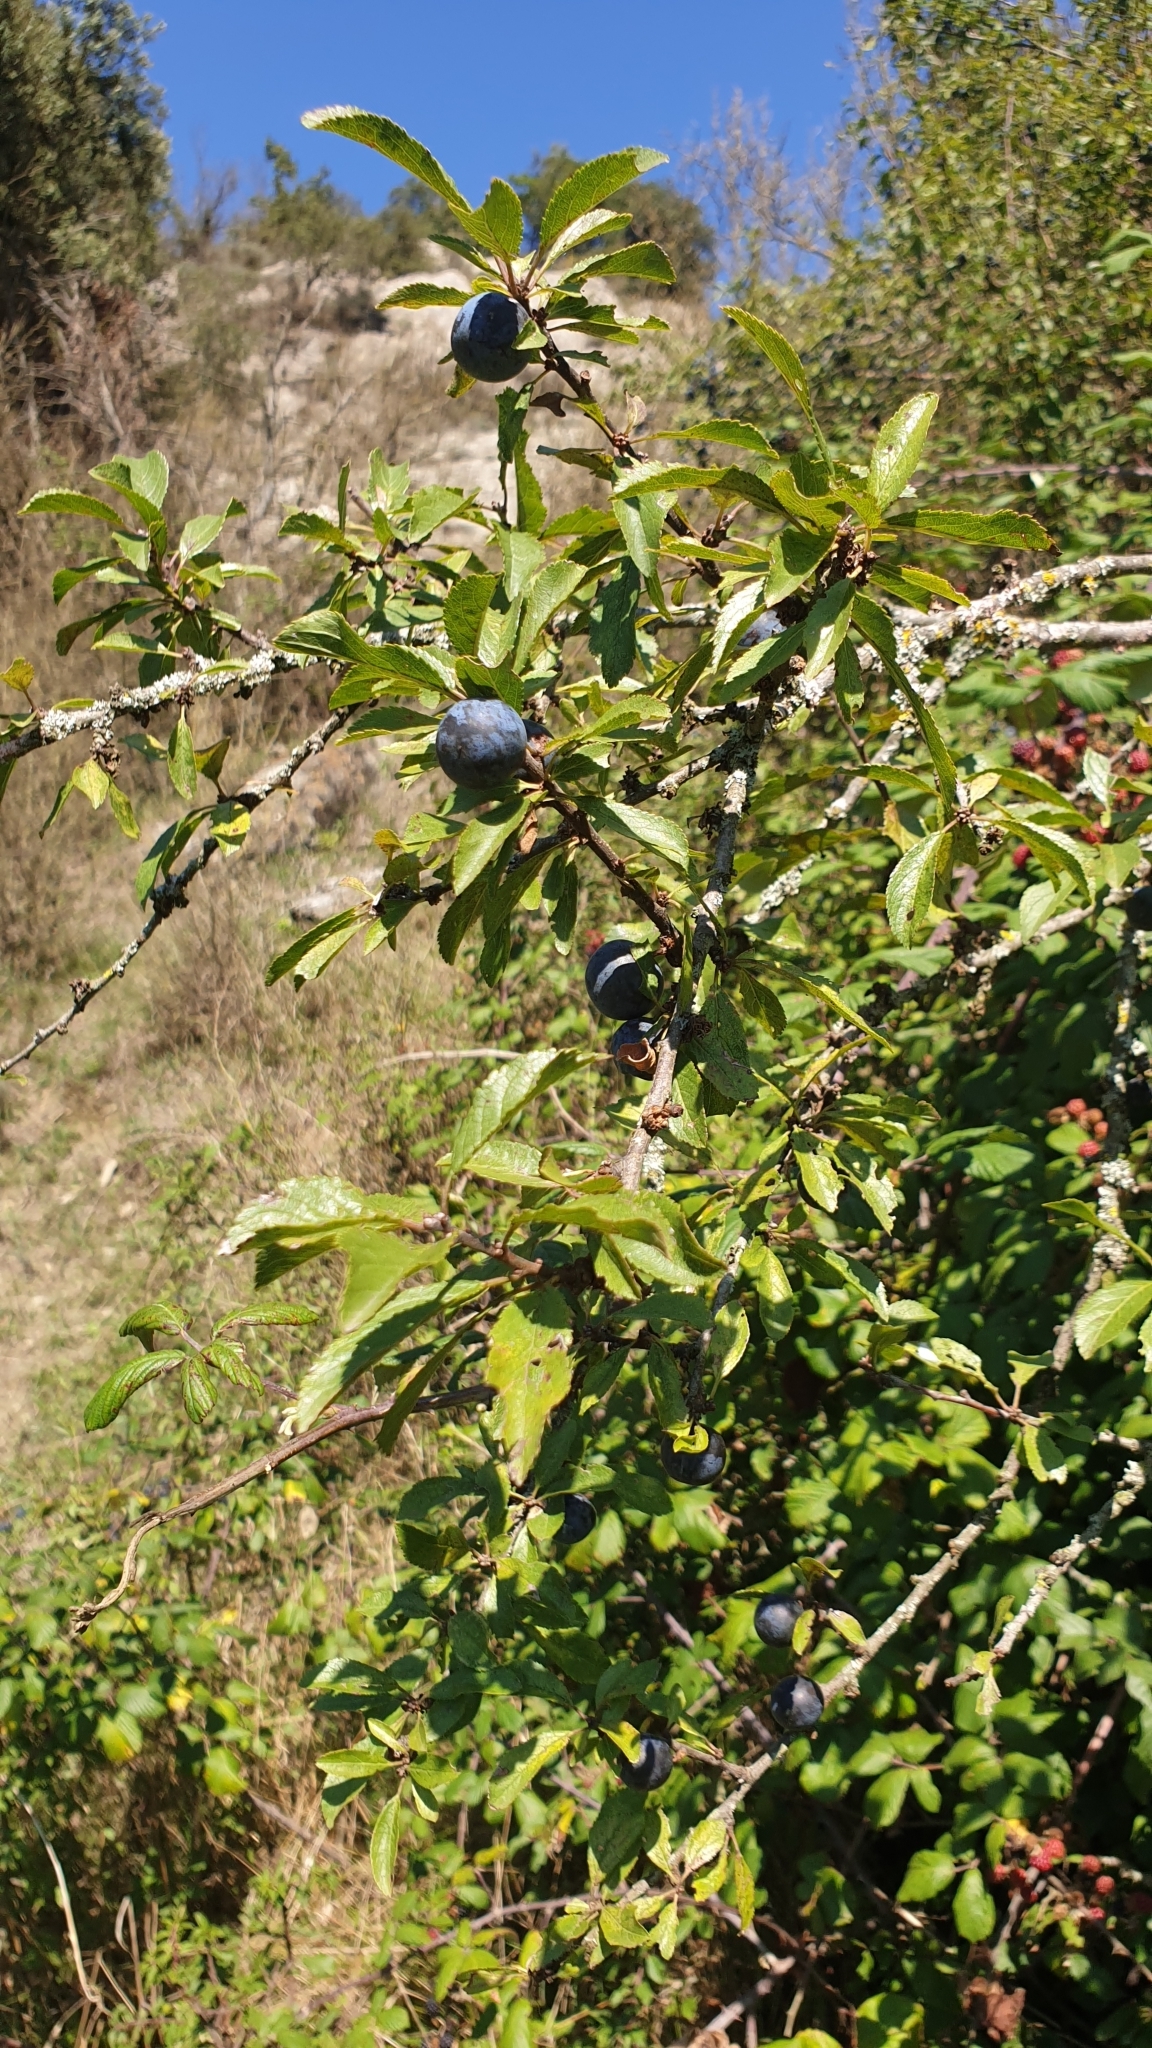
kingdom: Plantae
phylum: Tracheophyta
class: Magnoliopsida
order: Rosales
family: Rosaceae
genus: Prunus
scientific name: Prunus spinosa
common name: Blackthorn
